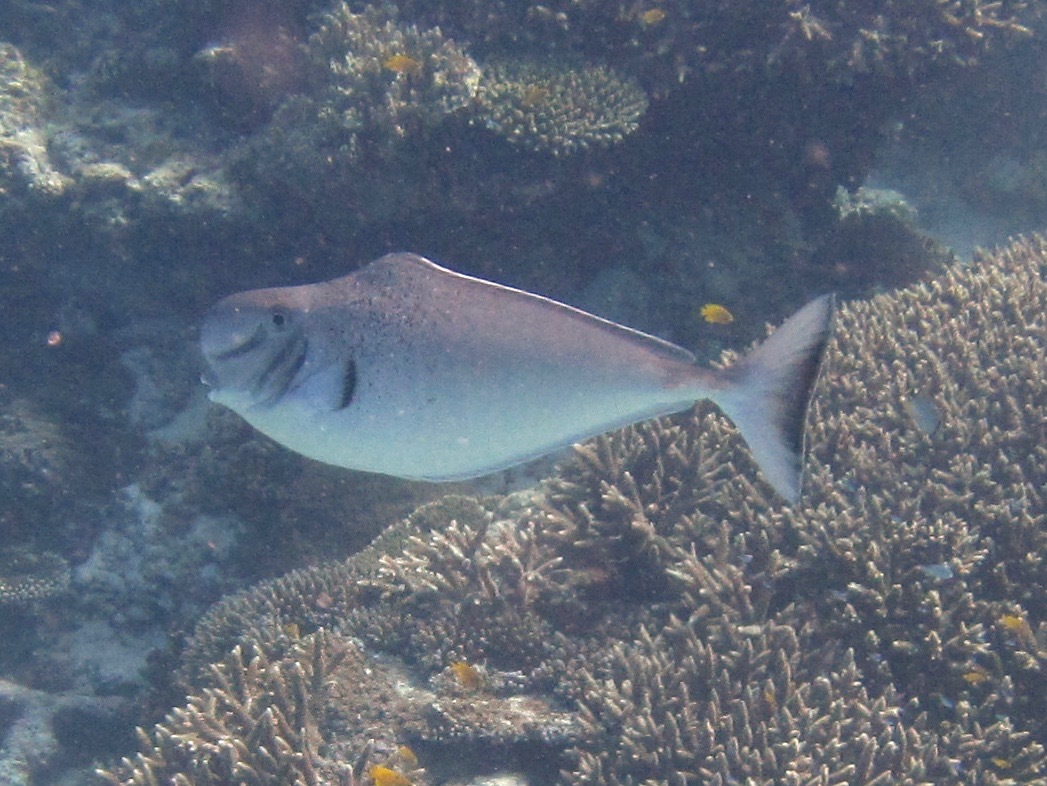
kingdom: Animalia
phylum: Chordata
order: Perciformes
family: Acanthuridae
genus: Naso
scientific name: Naso tonganus
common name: Humpnose unicornfish
